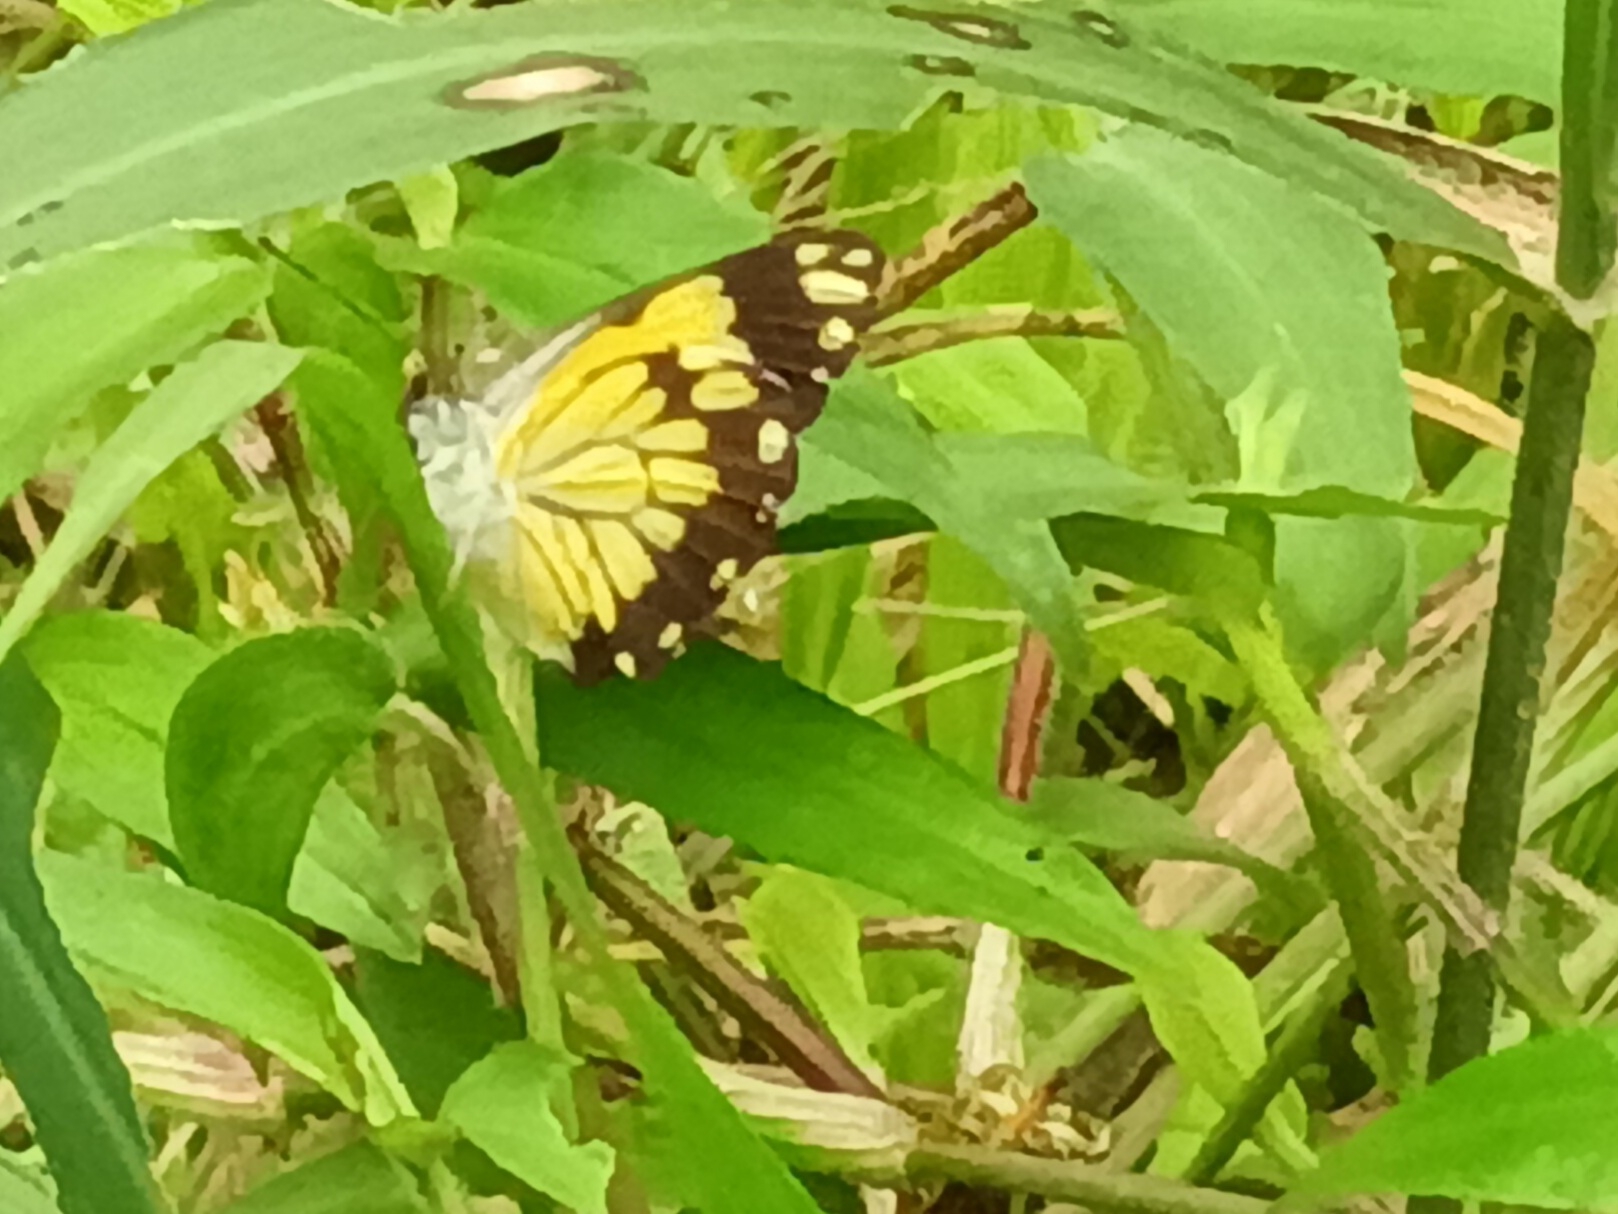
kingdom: Animalia
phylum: Arthropoda
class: Insecta
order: Lepidoptera
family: Pieridae
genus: Belenois
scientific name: Belenois creona
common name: African caper white
